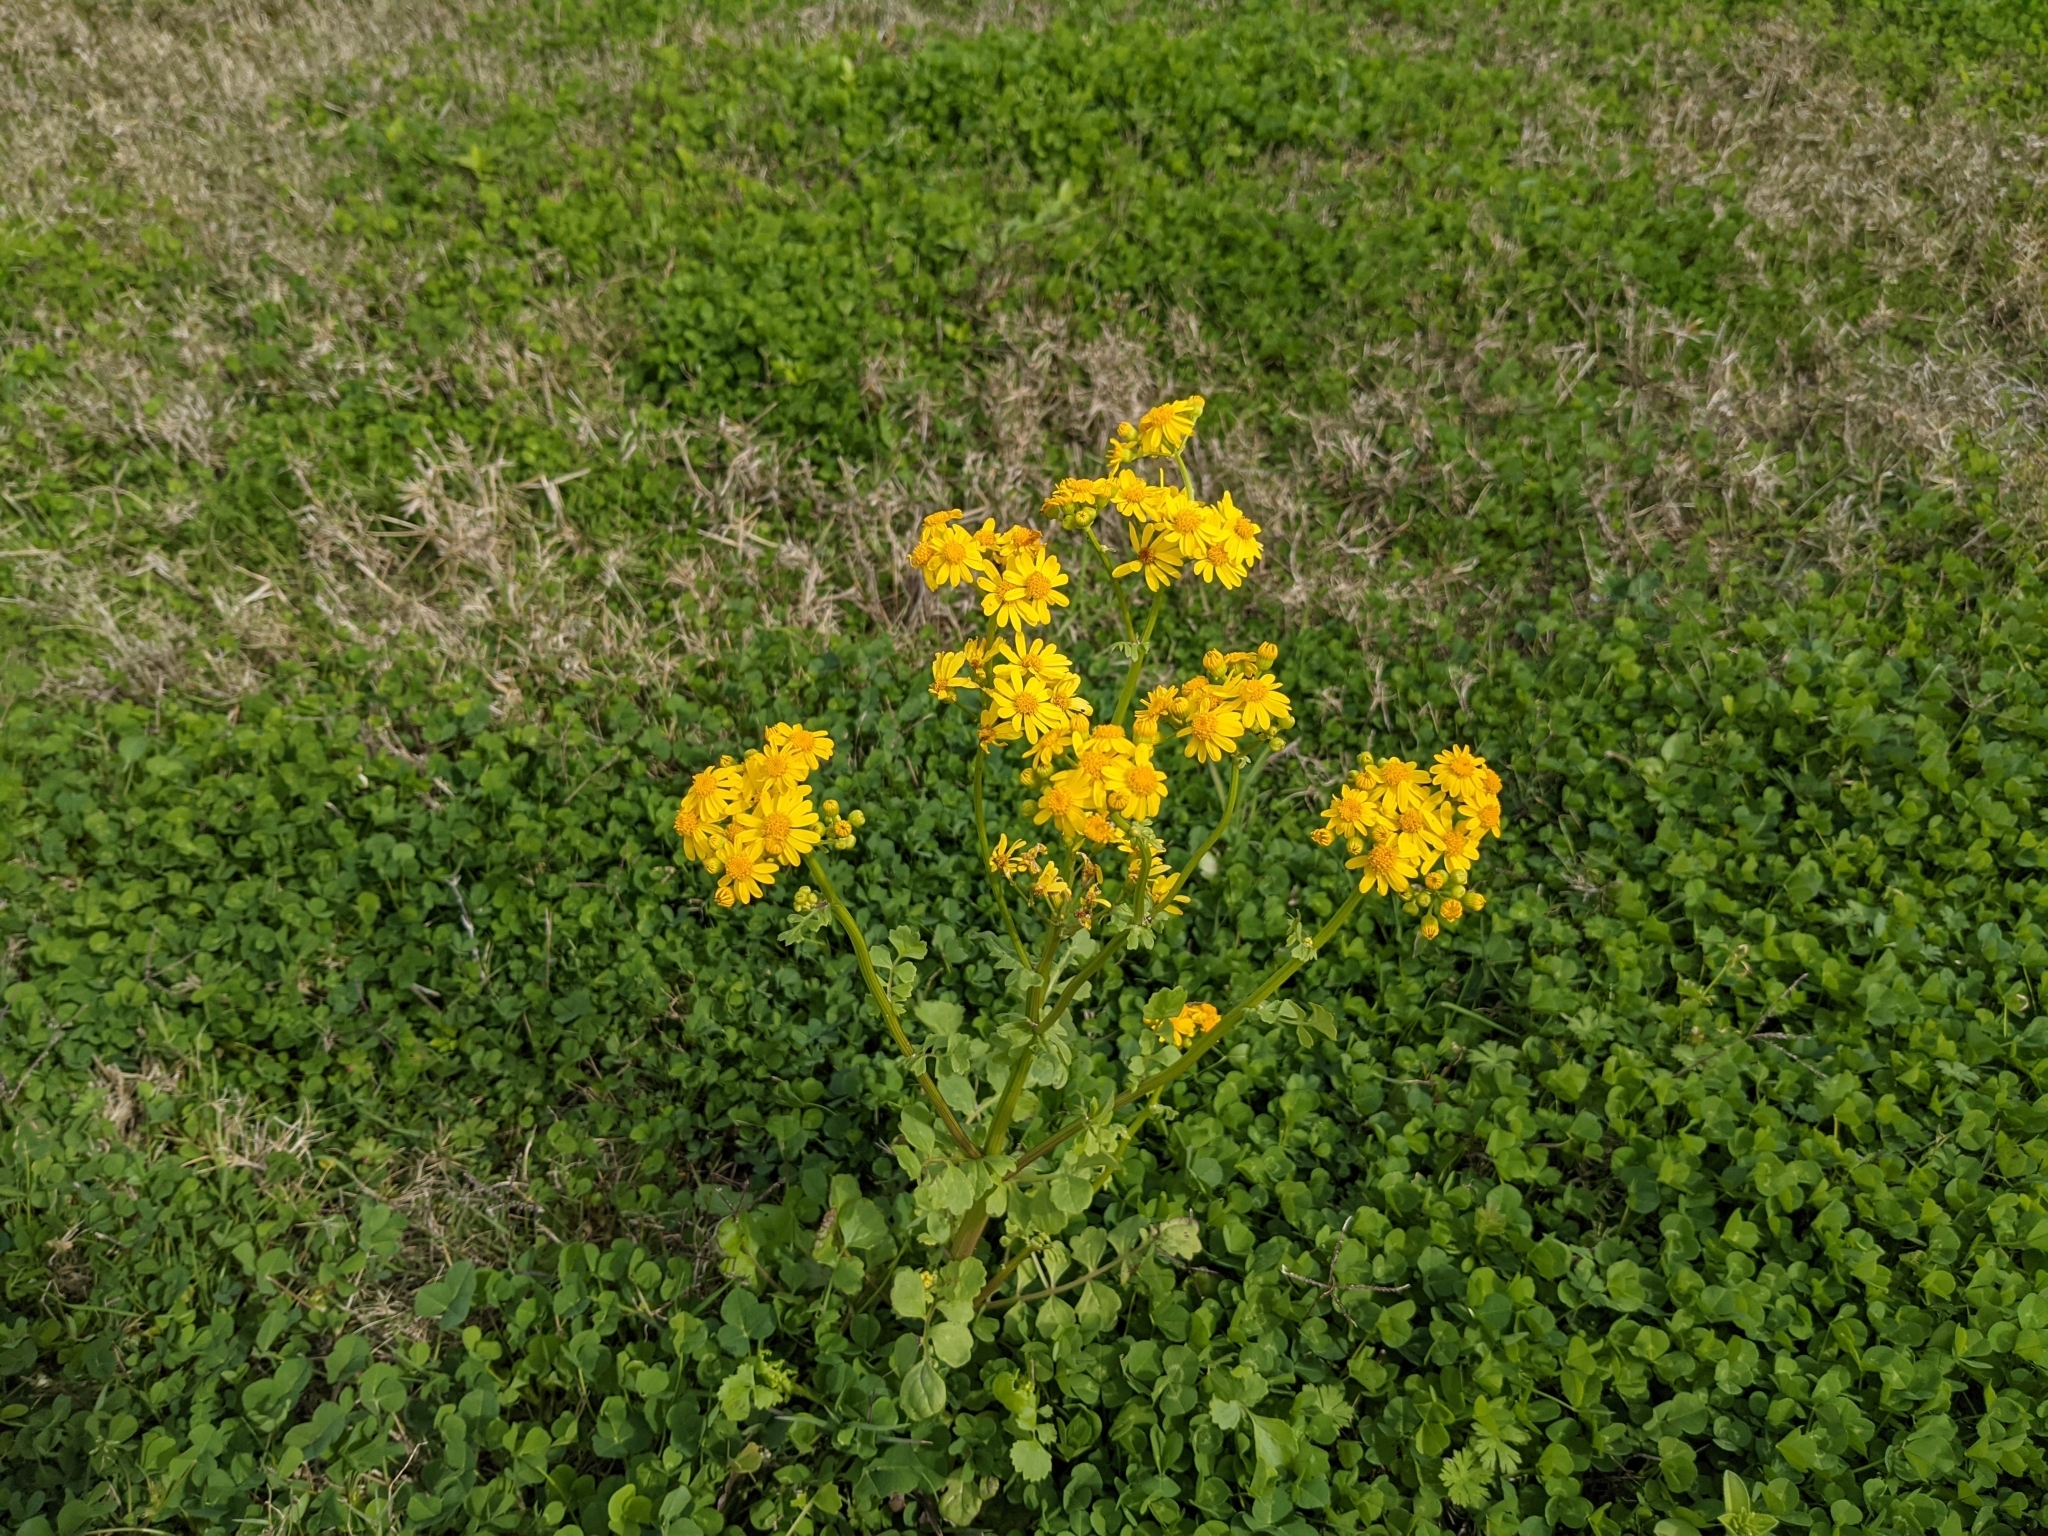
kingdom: Plantae
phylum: Tracheophyta
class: Magnoliopsida
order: Asterales
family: Asteraceae
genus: Packera
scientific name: Packera glabella
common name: Butterweed
